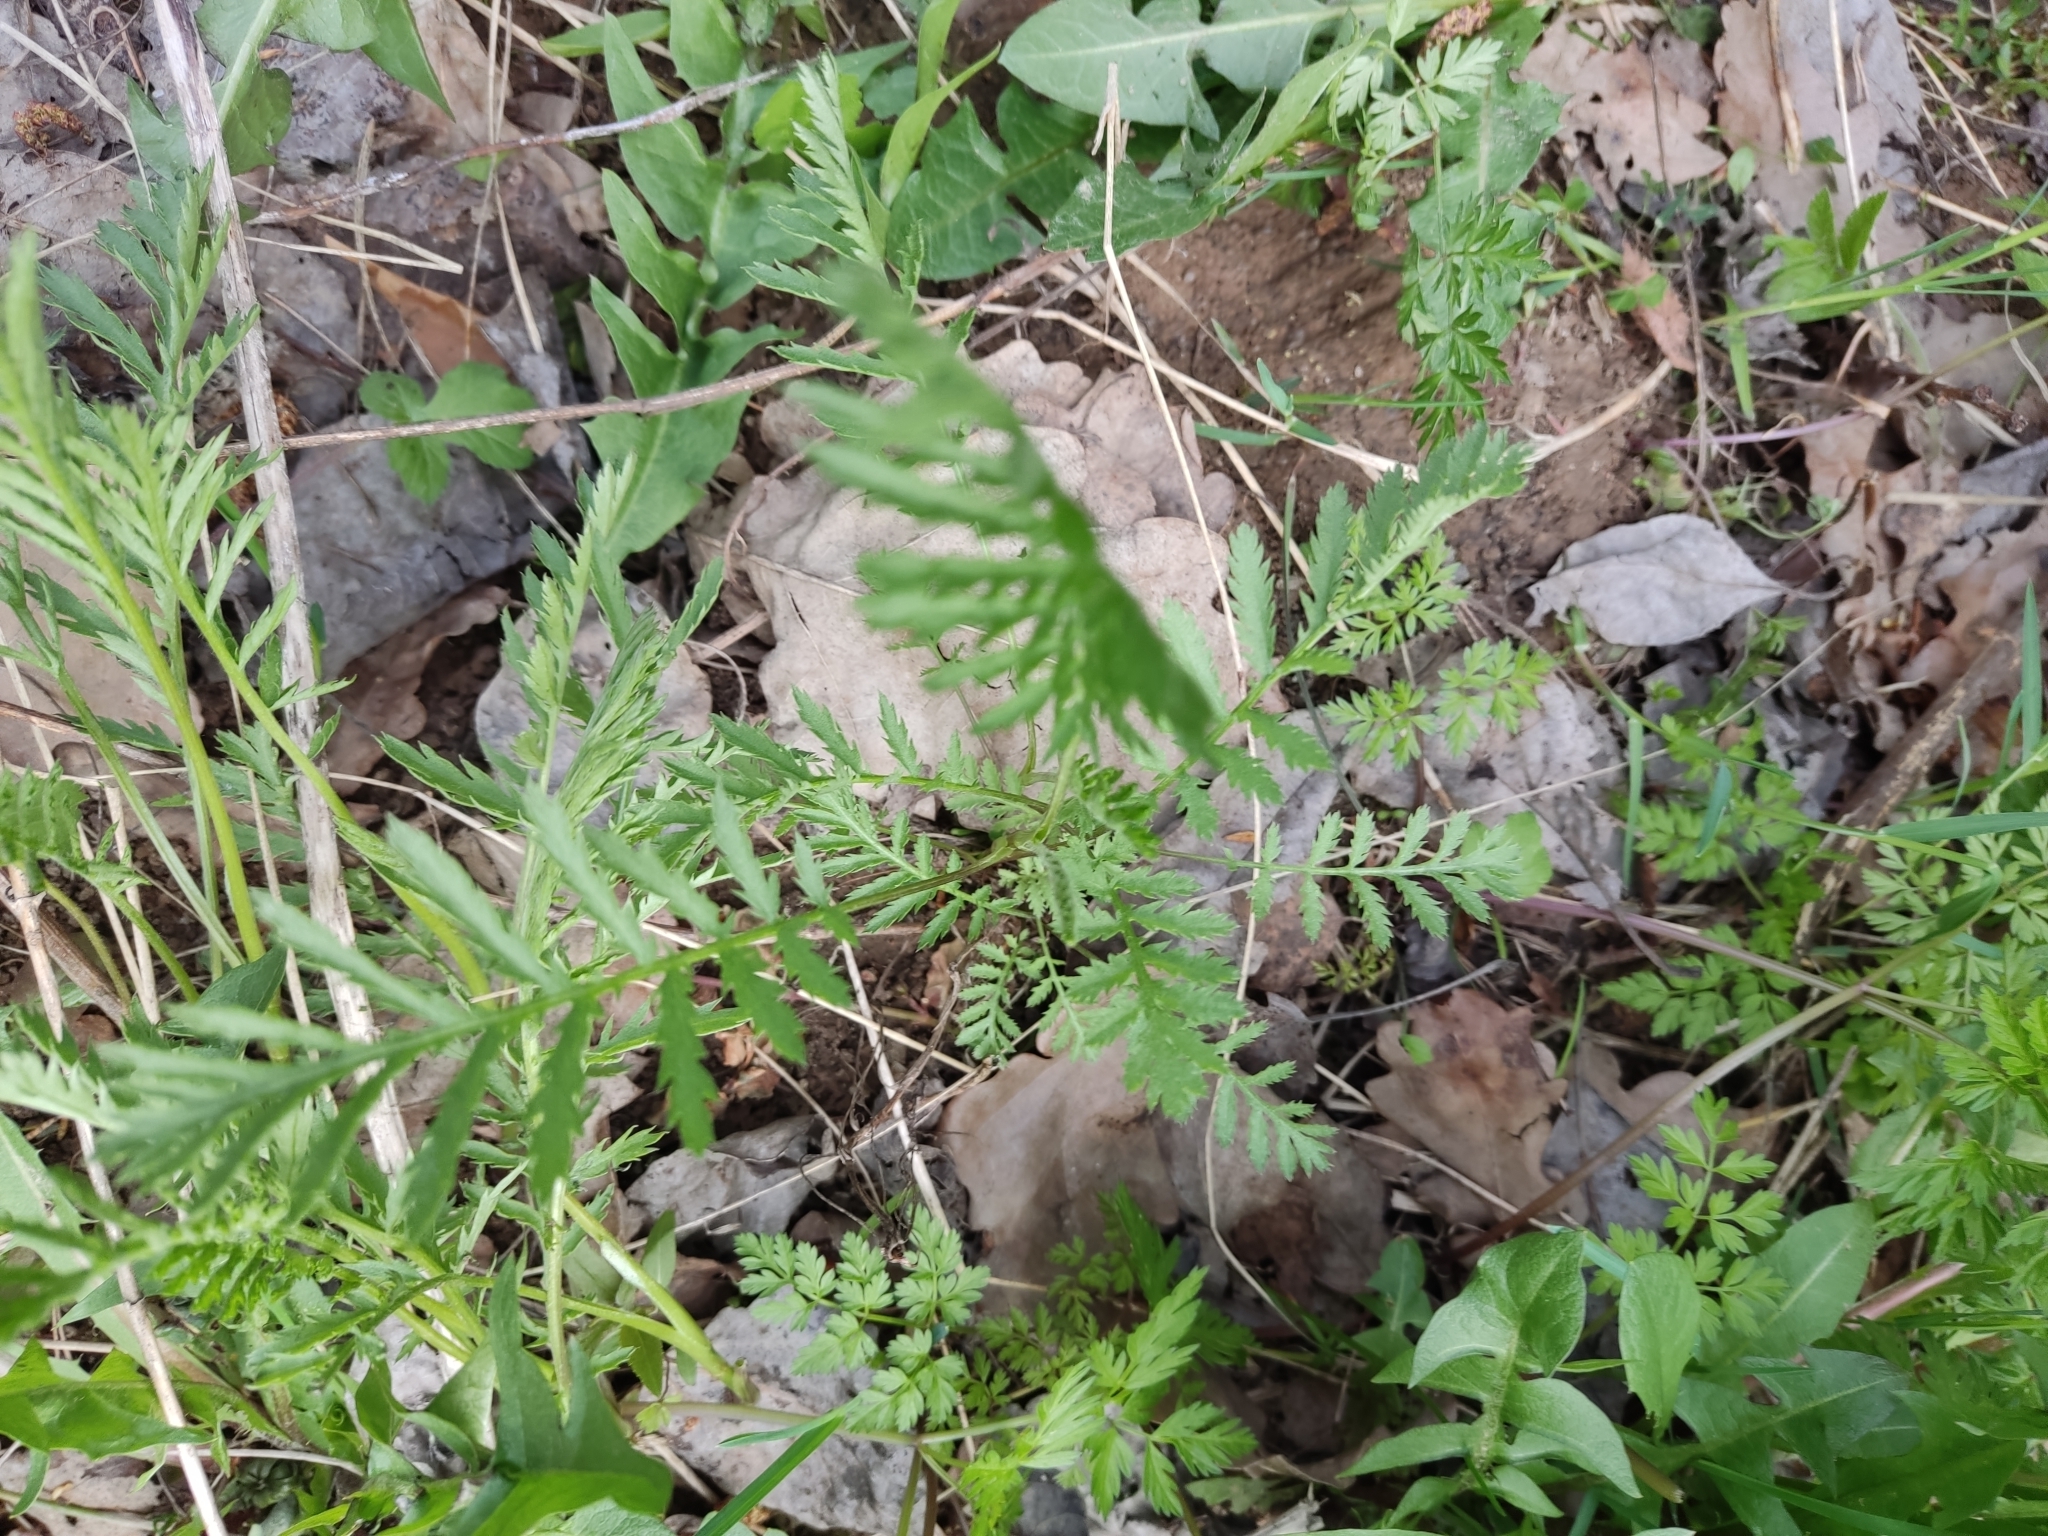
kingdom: Plantae
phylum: Tracheophyta
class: Magnoliopsida
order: Asterales
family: Asteraceae
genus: Tanacetum
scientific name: Tanacetum vulgare
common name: Common tansy
